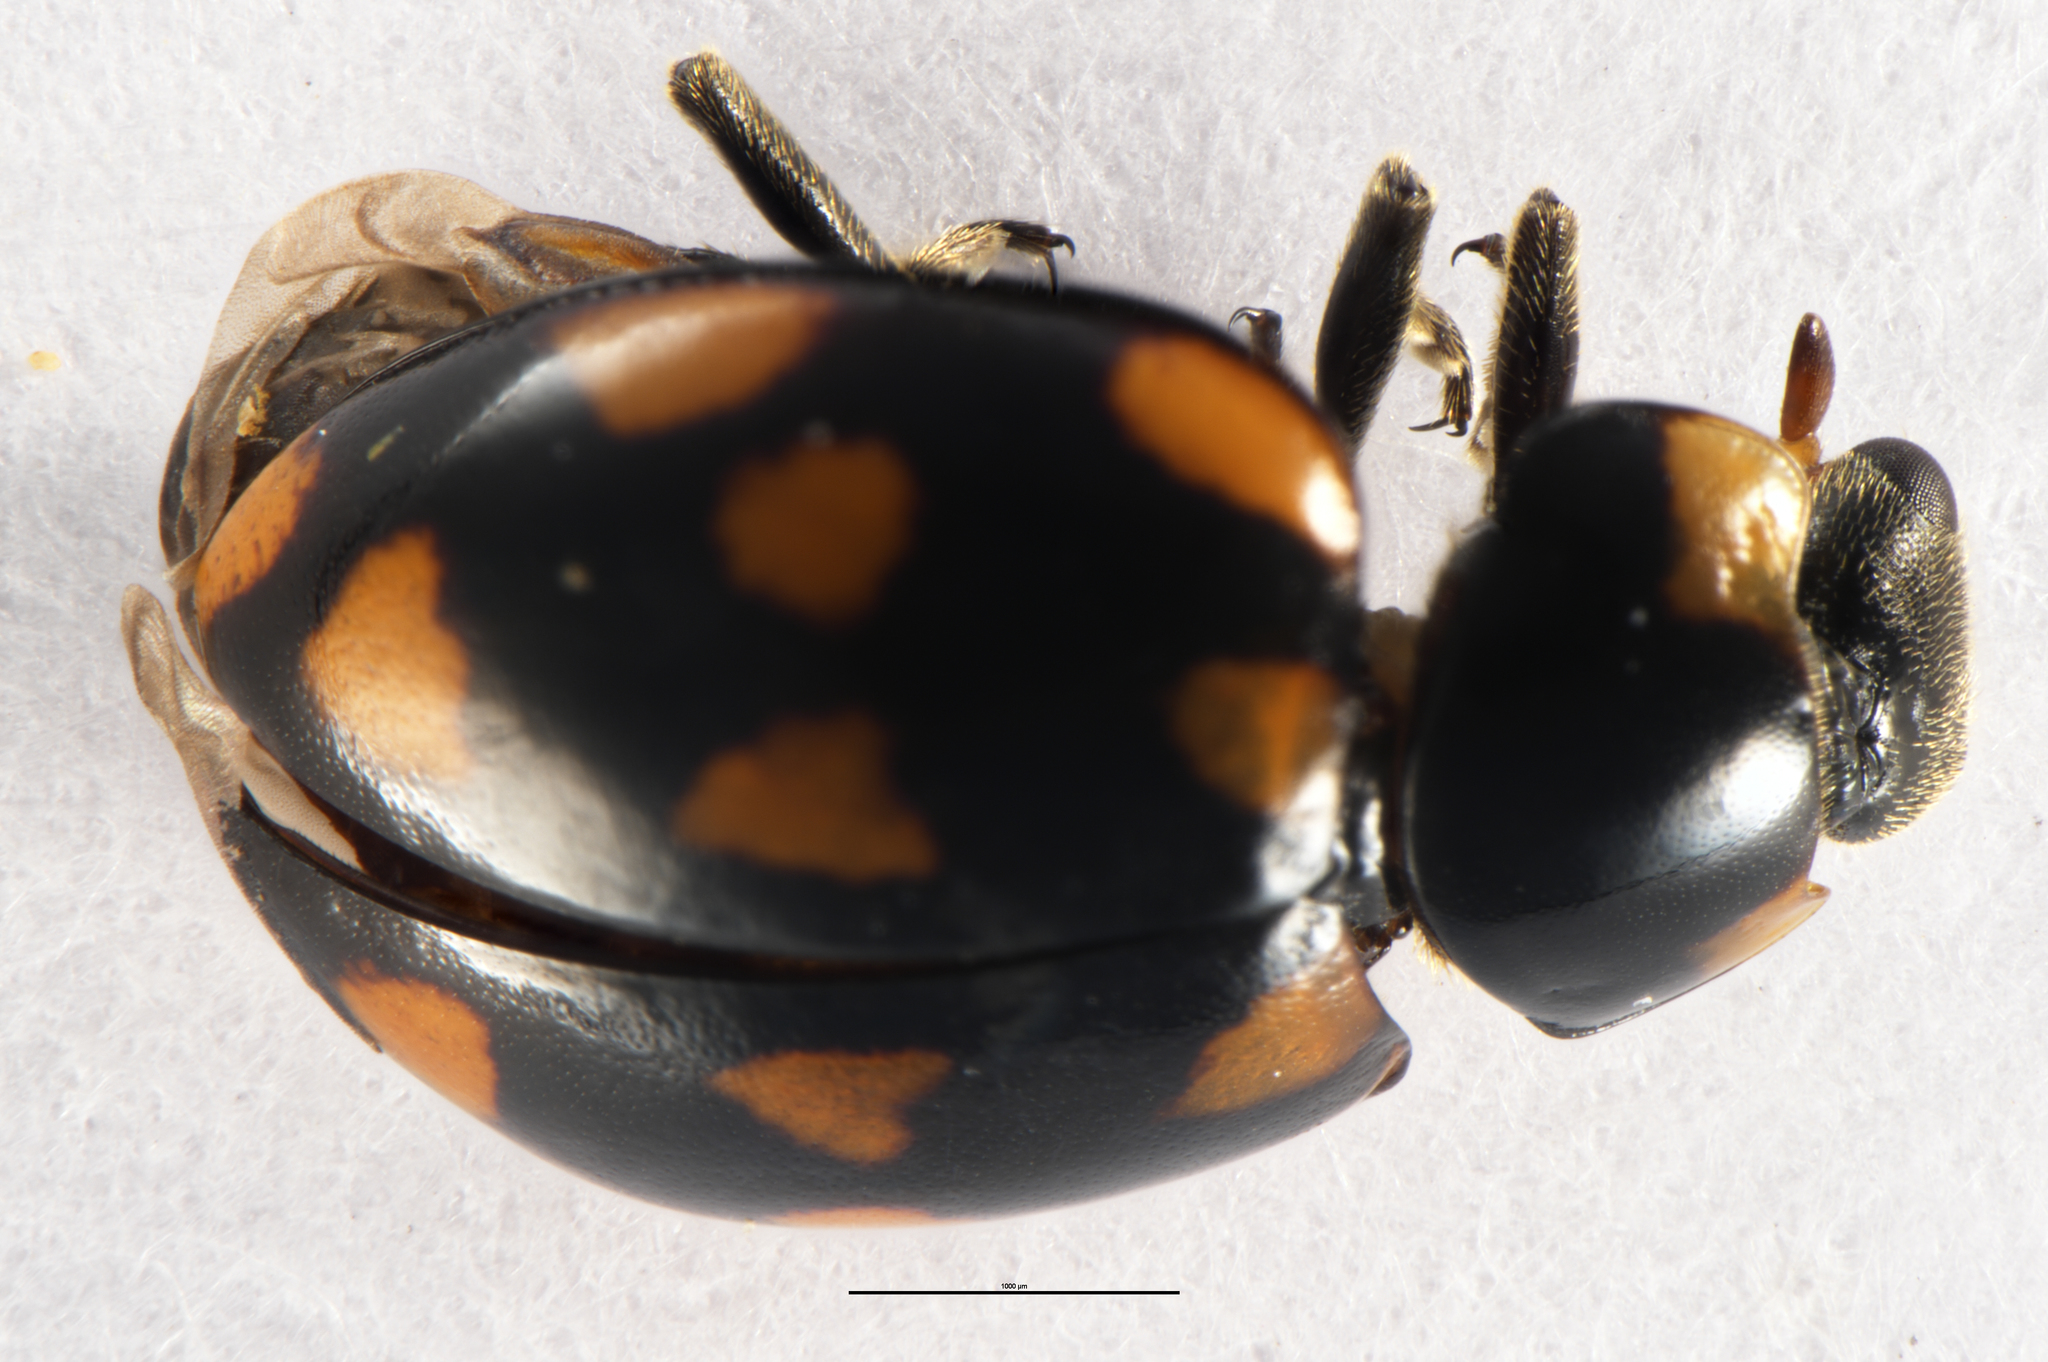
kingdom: Animalia
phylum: Arthropoda
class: Insecta
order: Coleoptera
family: Coccinellidae
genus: Coccinella
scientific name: Coccinella leonina
